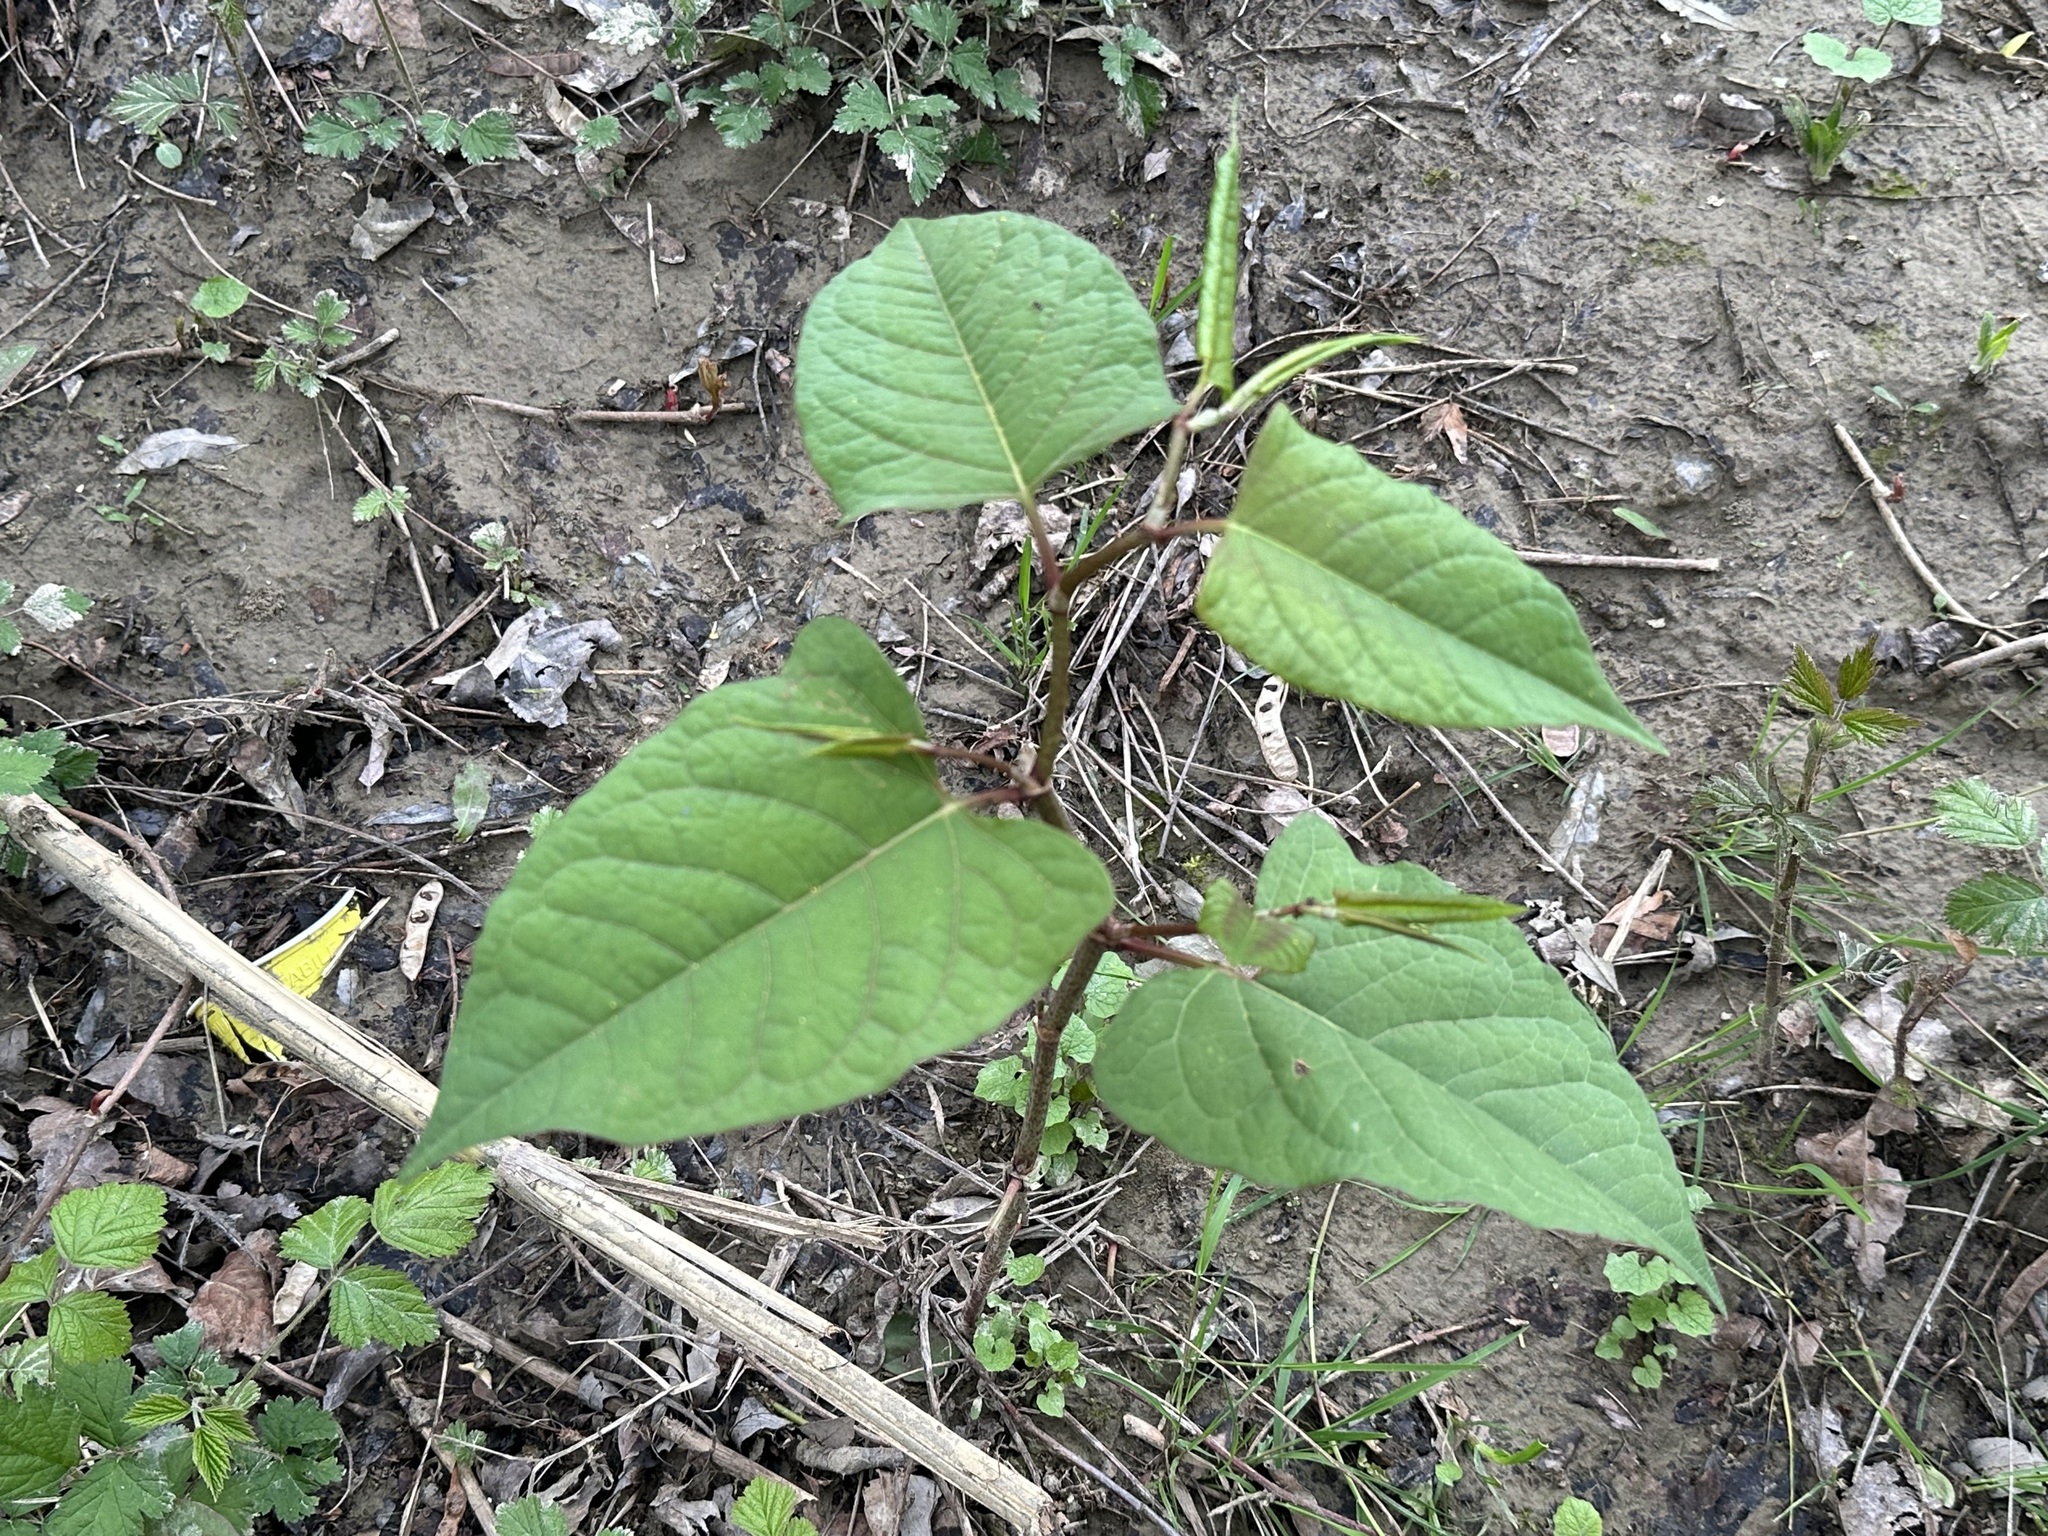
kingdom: Plantae
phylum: Tracheophyta
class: Magnoliopsida
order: Caryophyllales
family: Polygonaceae
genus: Reynoutria
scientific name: Reynoutria japonica
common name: Japanese knotweed
